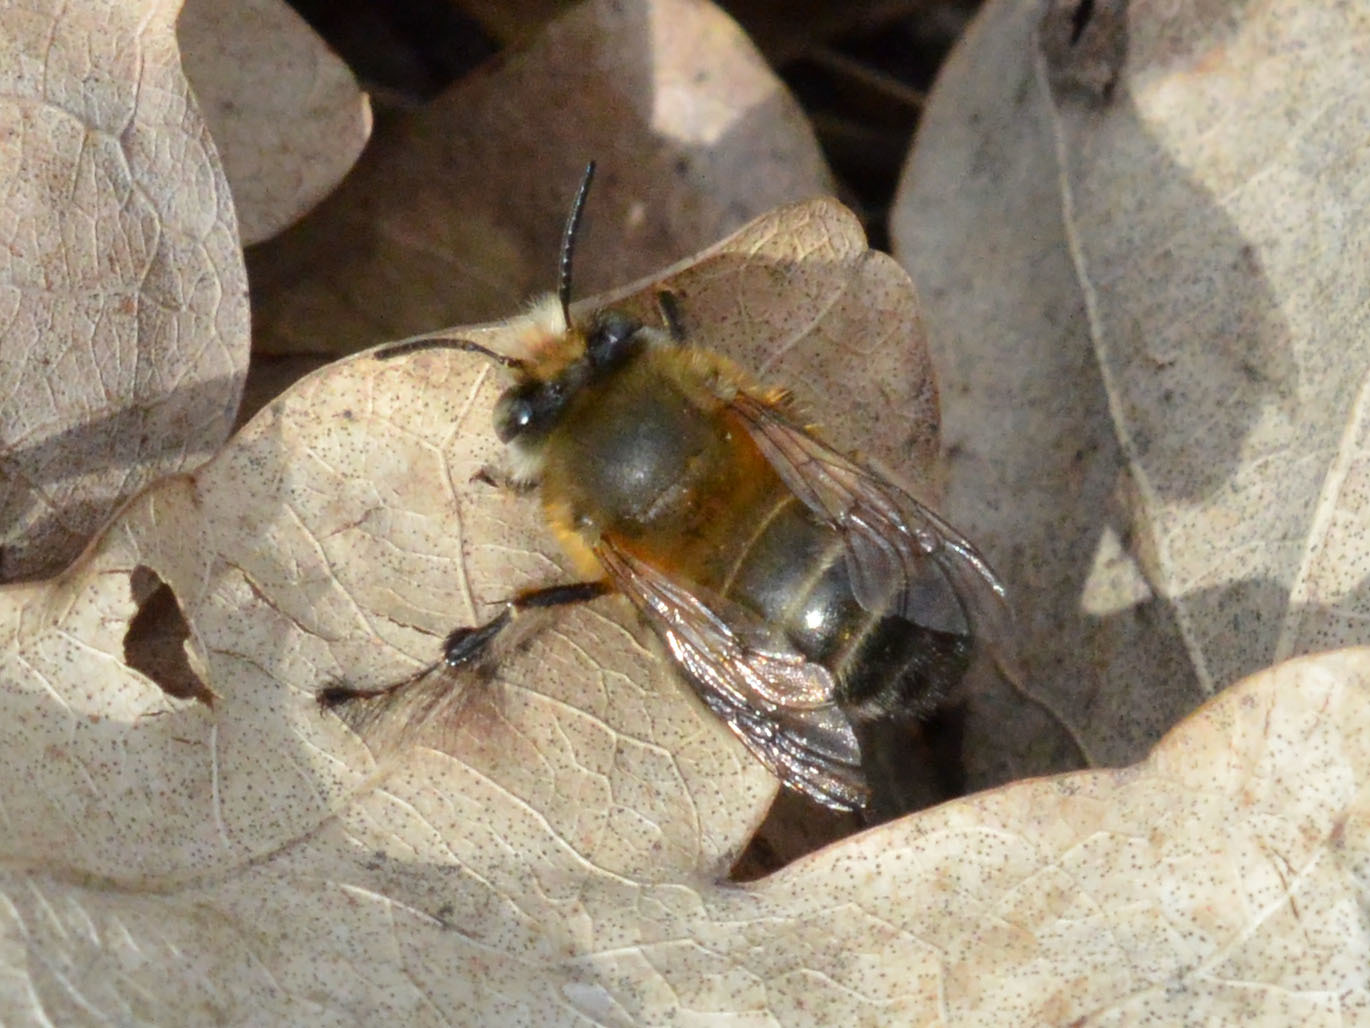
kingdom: Animalia
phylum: Arthropoda
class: Insecta
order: Hymenoptera
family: Apidae
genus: Anthophora
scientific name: Anthophora plumipes
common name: Hairy-footed flower bee
